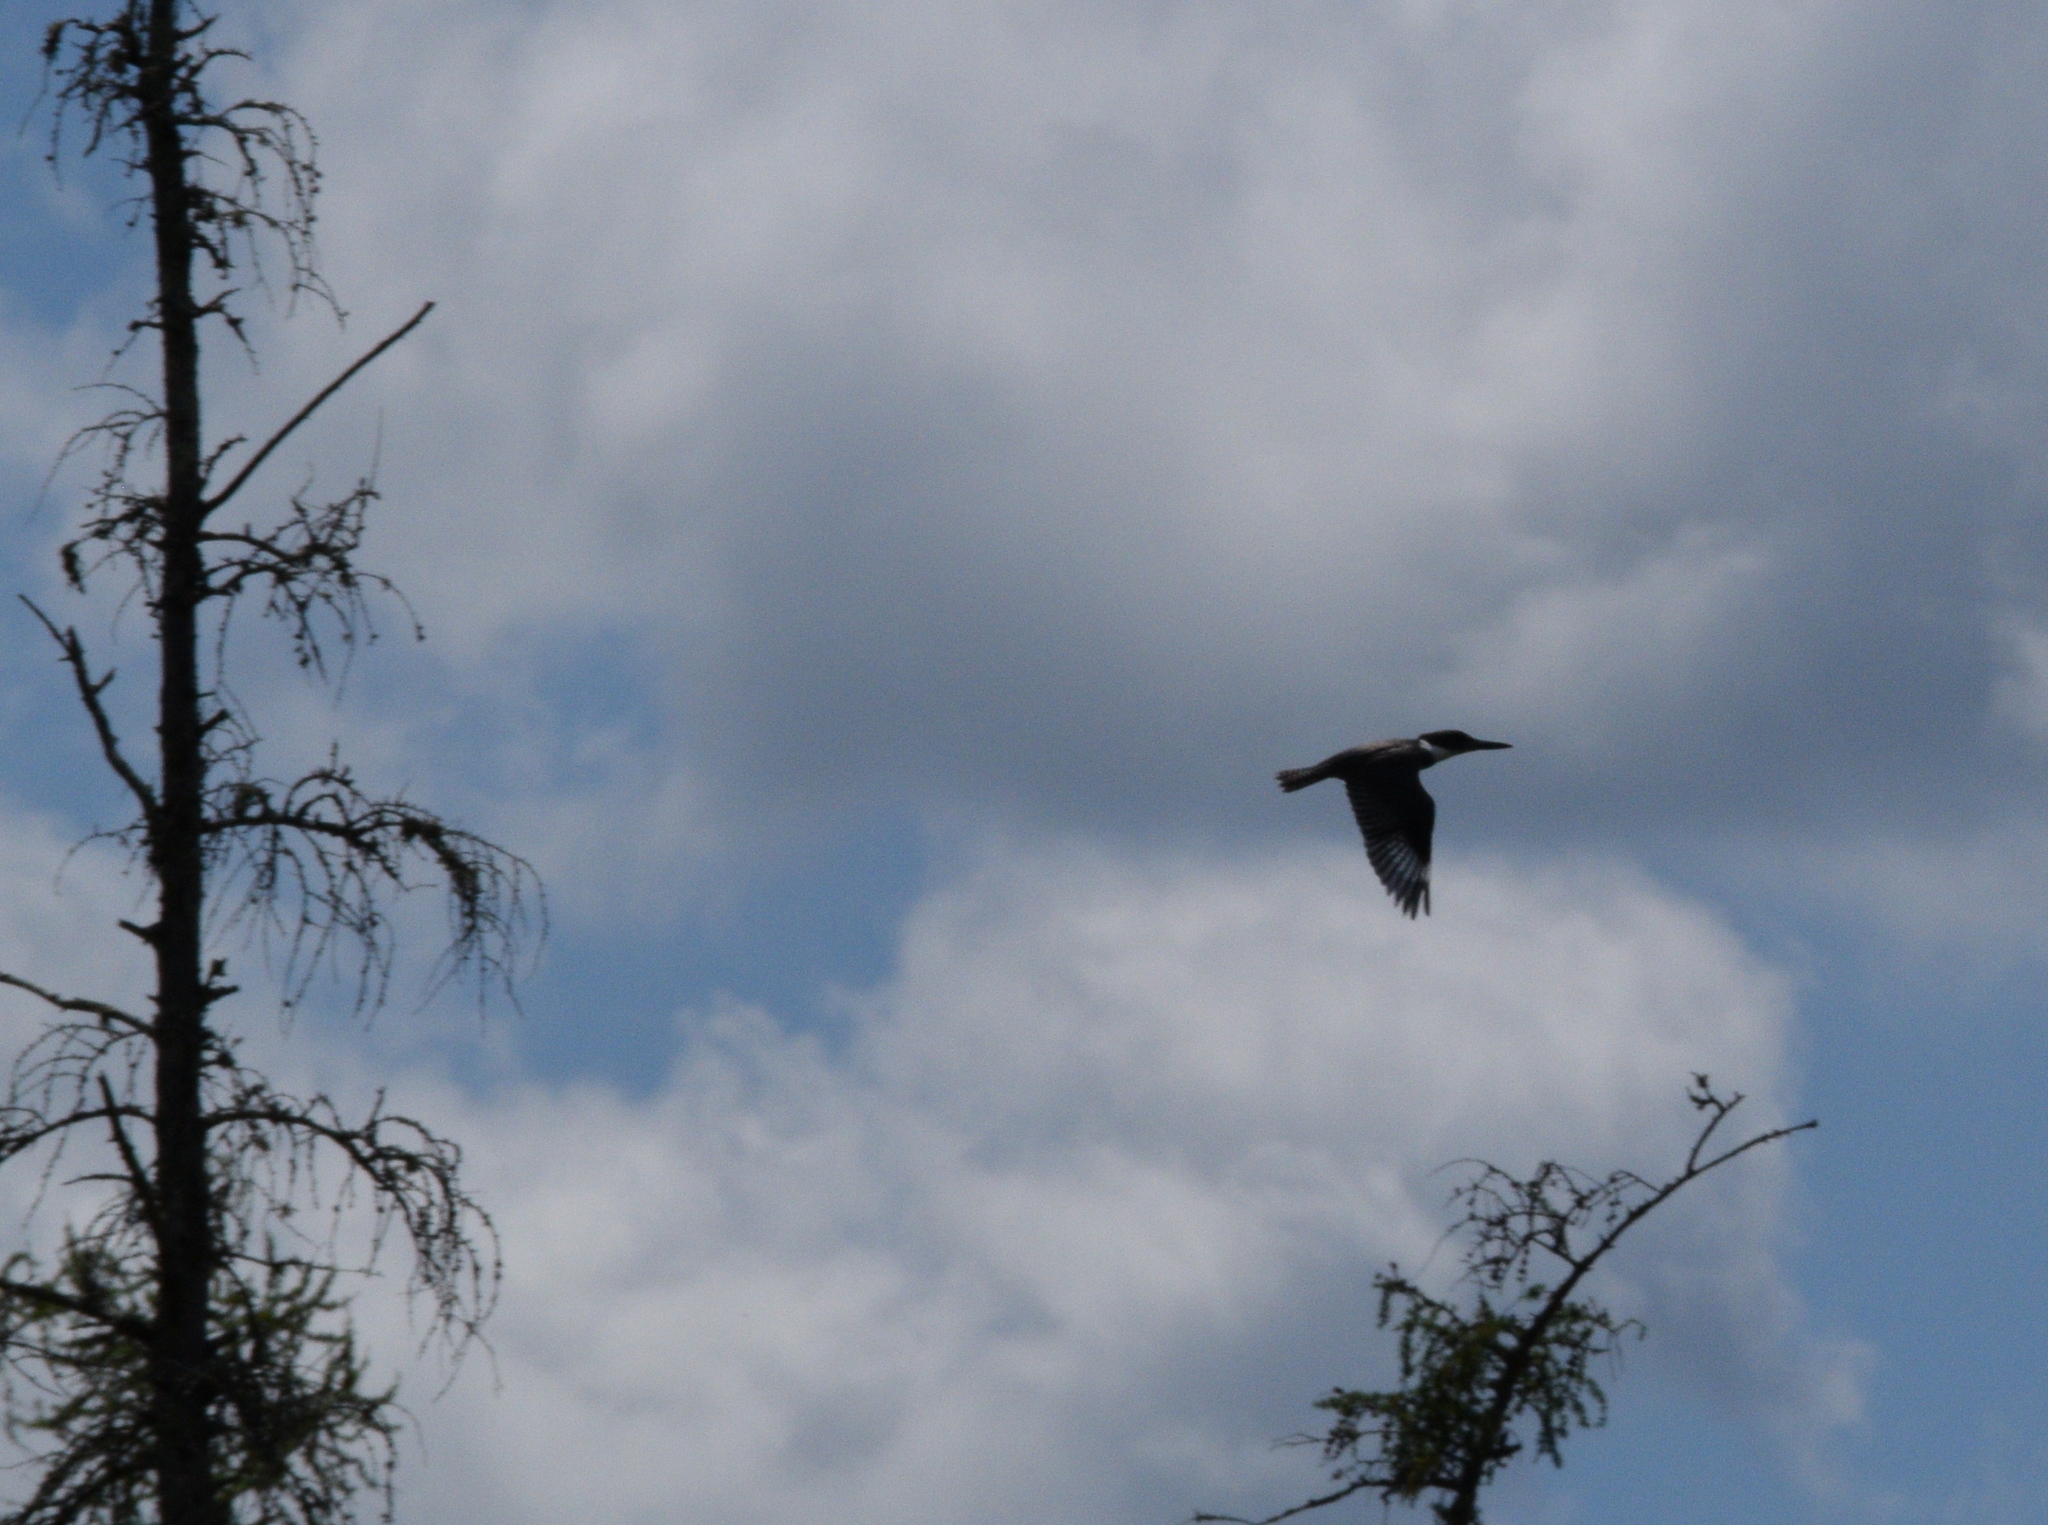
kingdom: Animalia
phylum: Chordata
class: Aves
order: Coraciiformes
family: Alcedinidae
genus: Megaceryle
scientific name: Megaceryle alcyon
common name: Belted kingfisher
